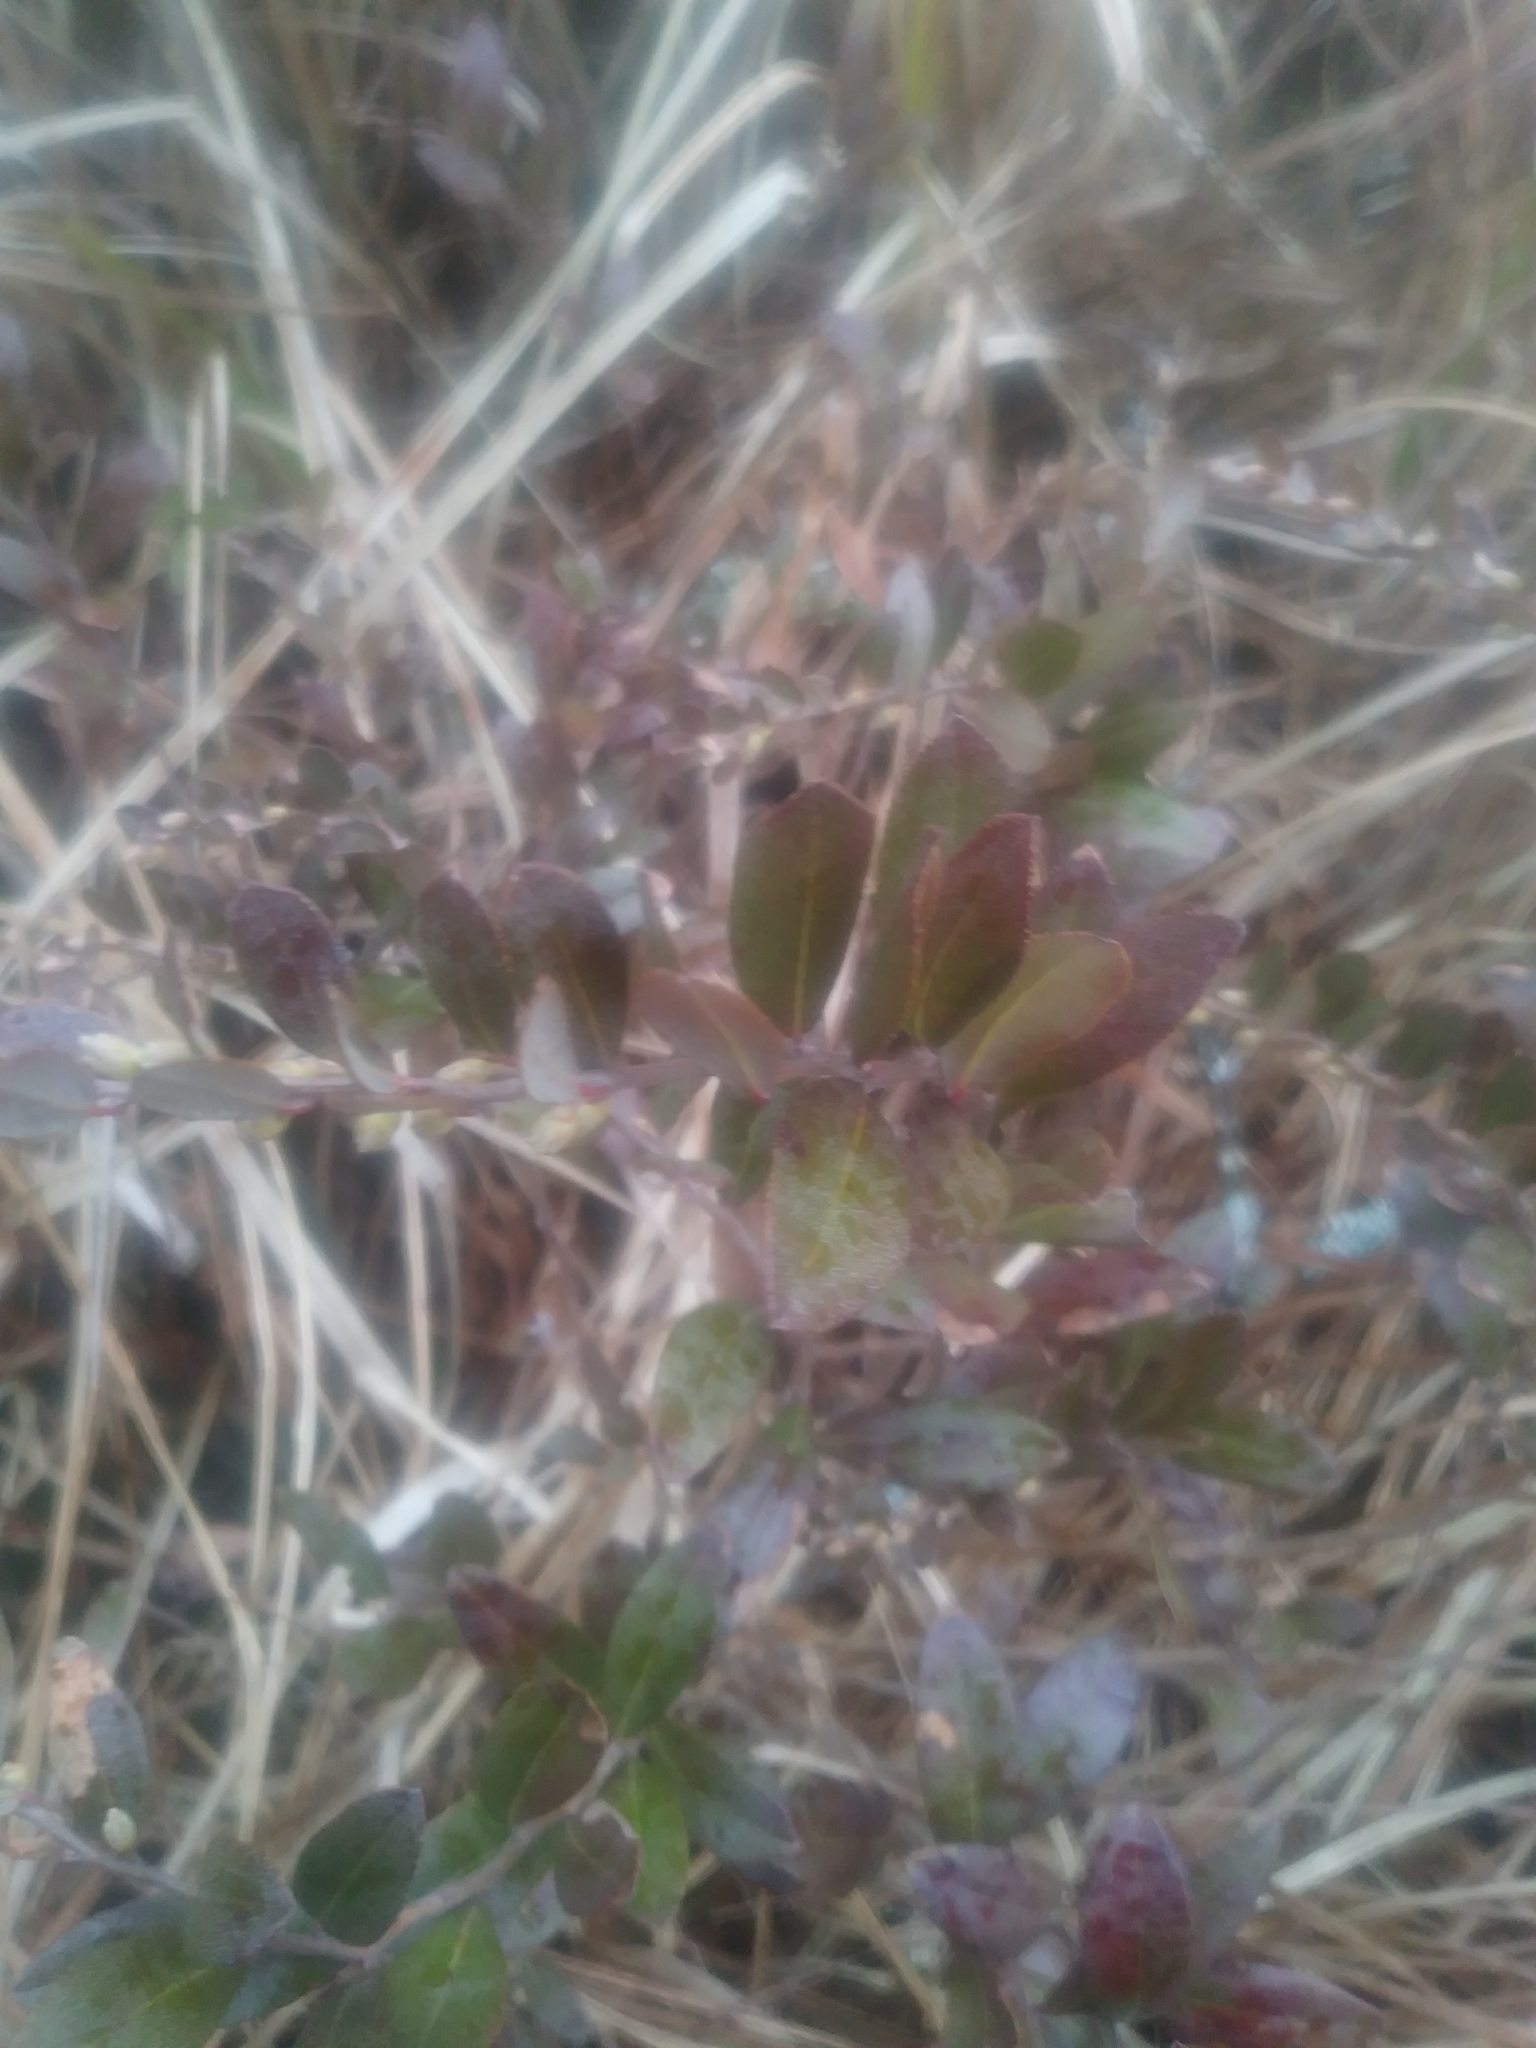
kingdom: Plantae
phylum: Tracheophyta
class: Magnoliopsida
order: Ericales
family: Ericaceae
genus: Chamaedaphne
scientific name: Chamaedaphne calyculata
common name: Leatherleaf
